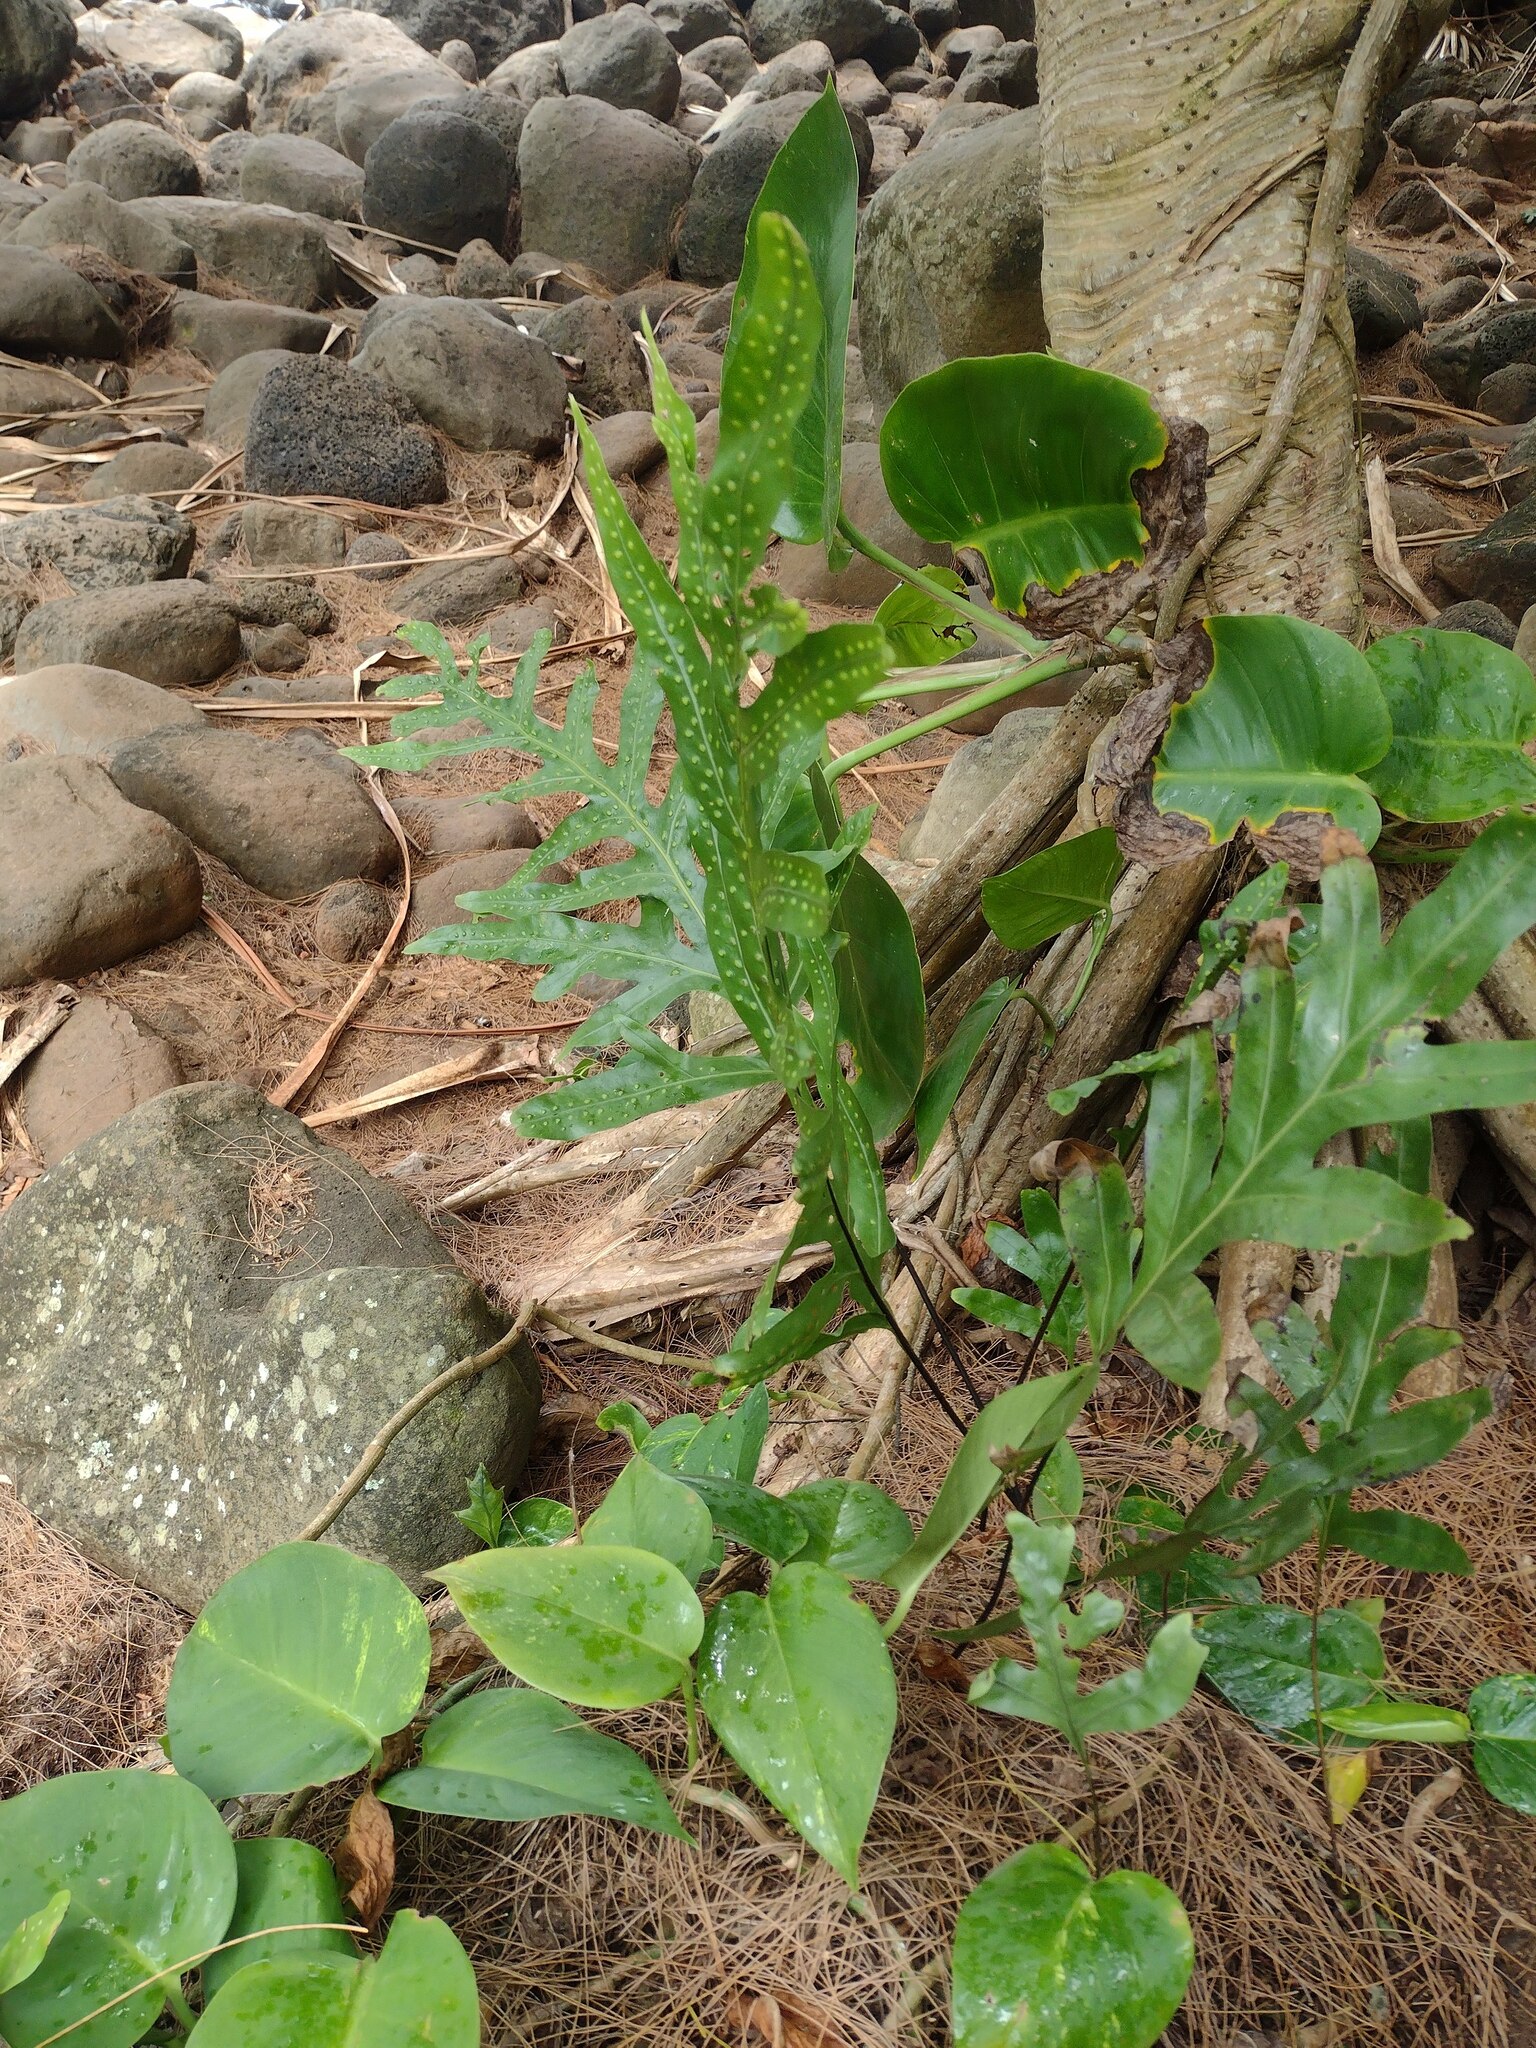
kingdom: Plantae
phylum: Tracheophyta
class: Polypodiopsida
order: Polypodiales
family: Polypodiaceae
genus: Microsorum
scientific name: Microsorum grossum
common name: Musk fern
